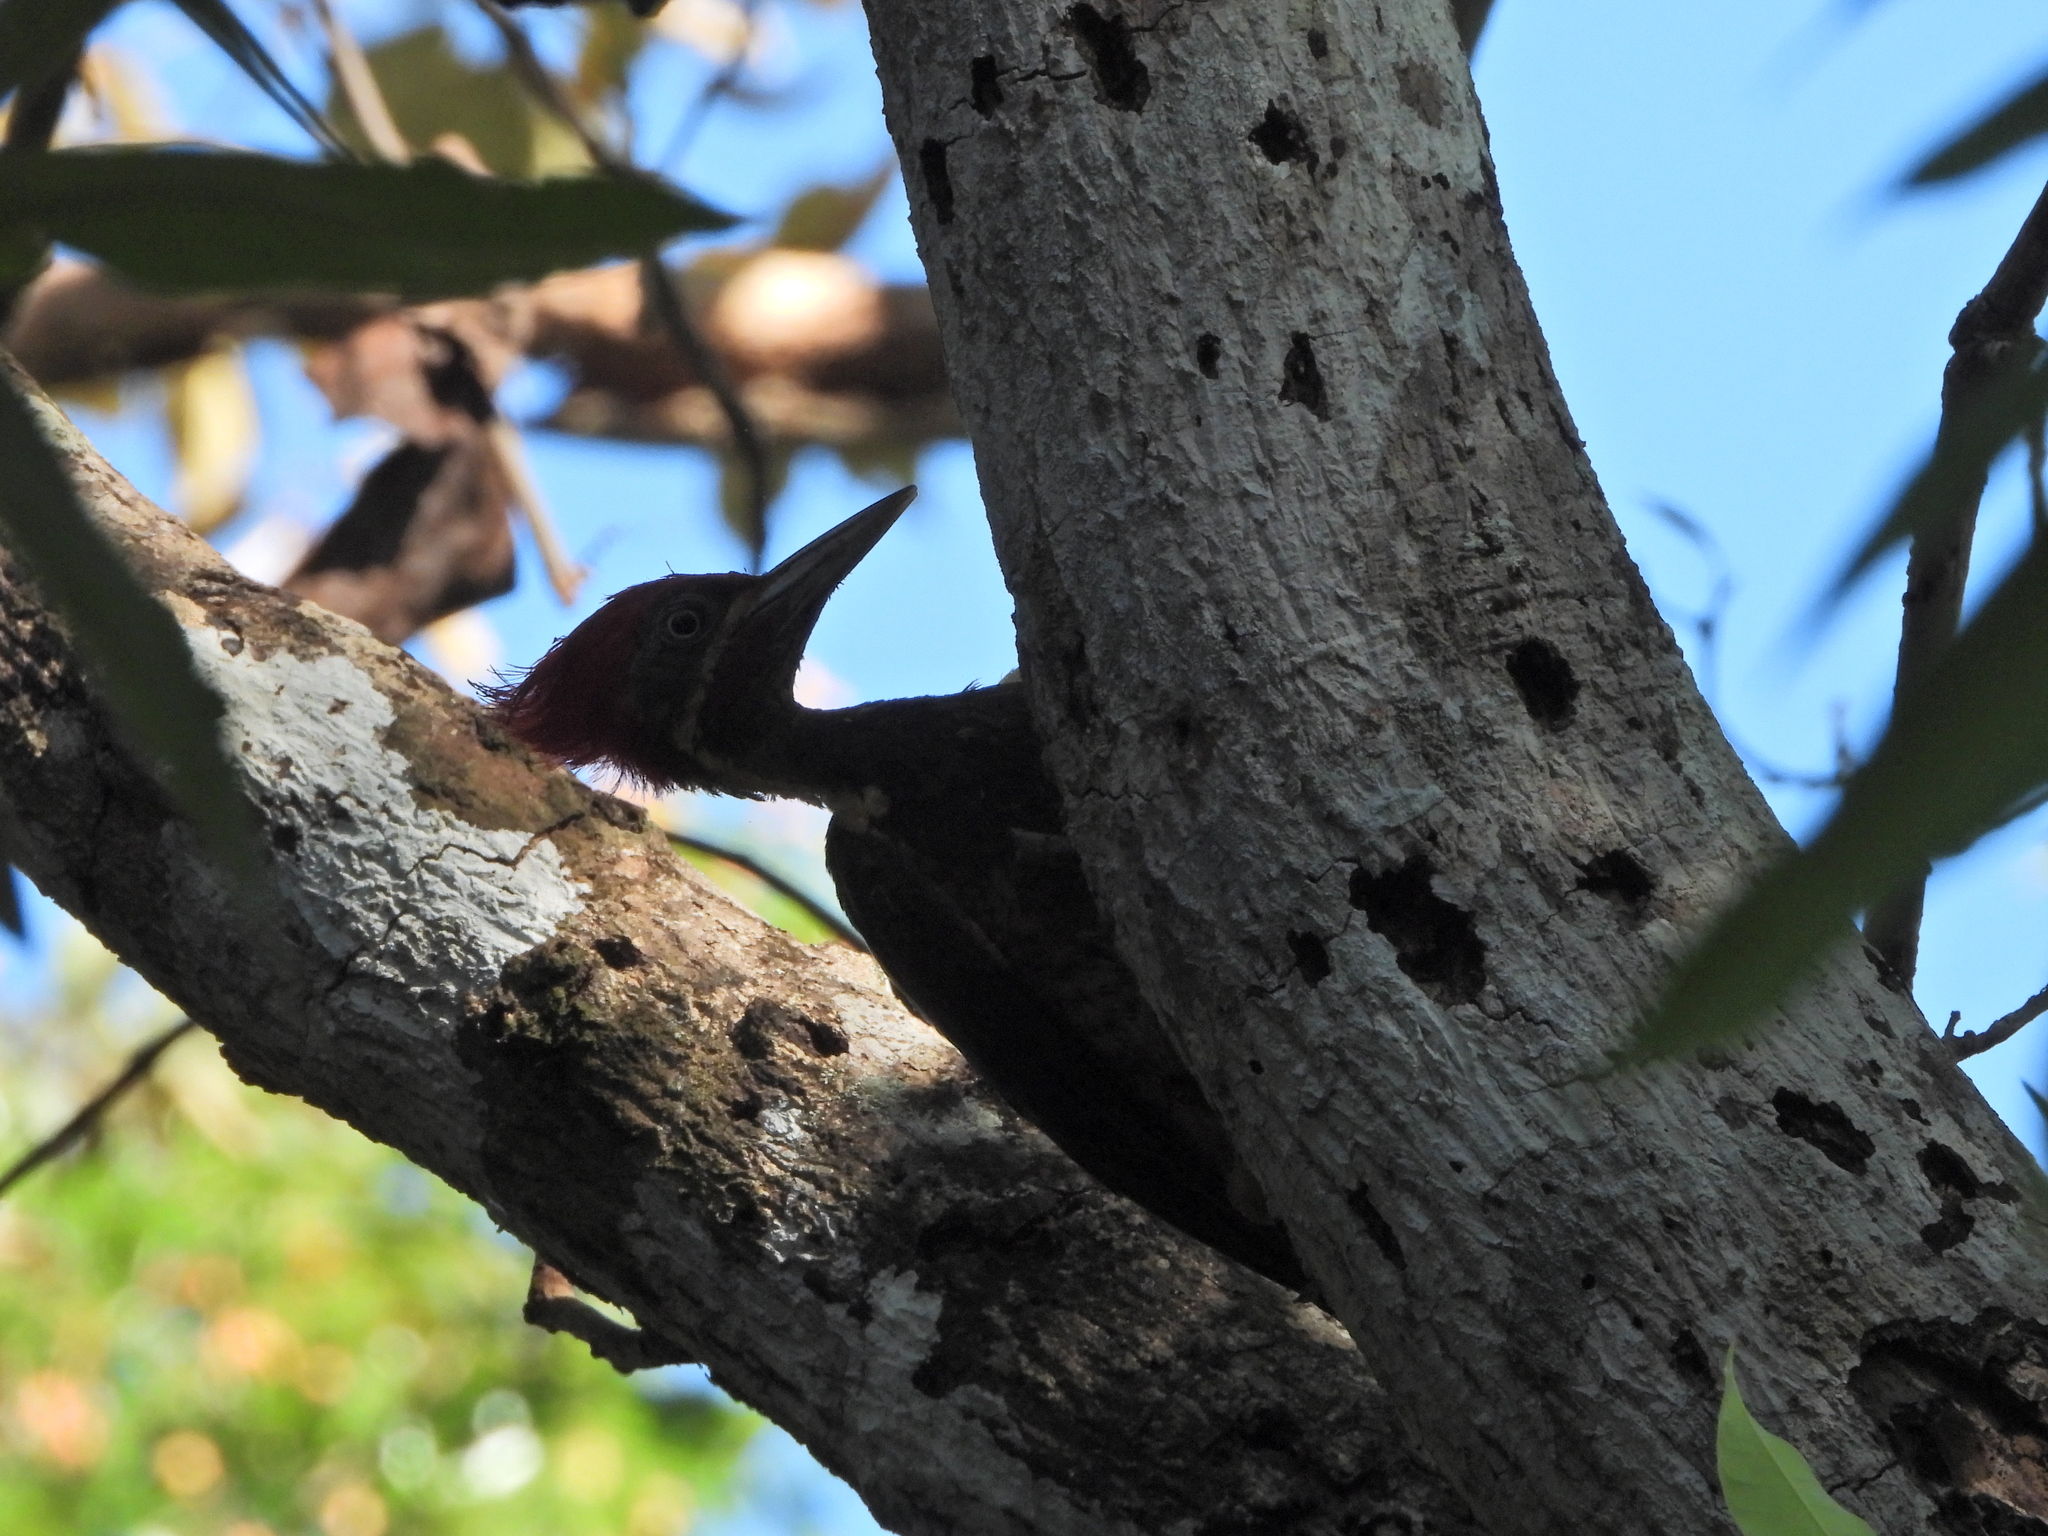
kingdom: Animalia
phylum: Chordata
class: Aves
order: Piciformes
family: Picidae
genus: Dryocopus
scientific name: Dryocopus lineatus
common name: Lineated woodpecker
